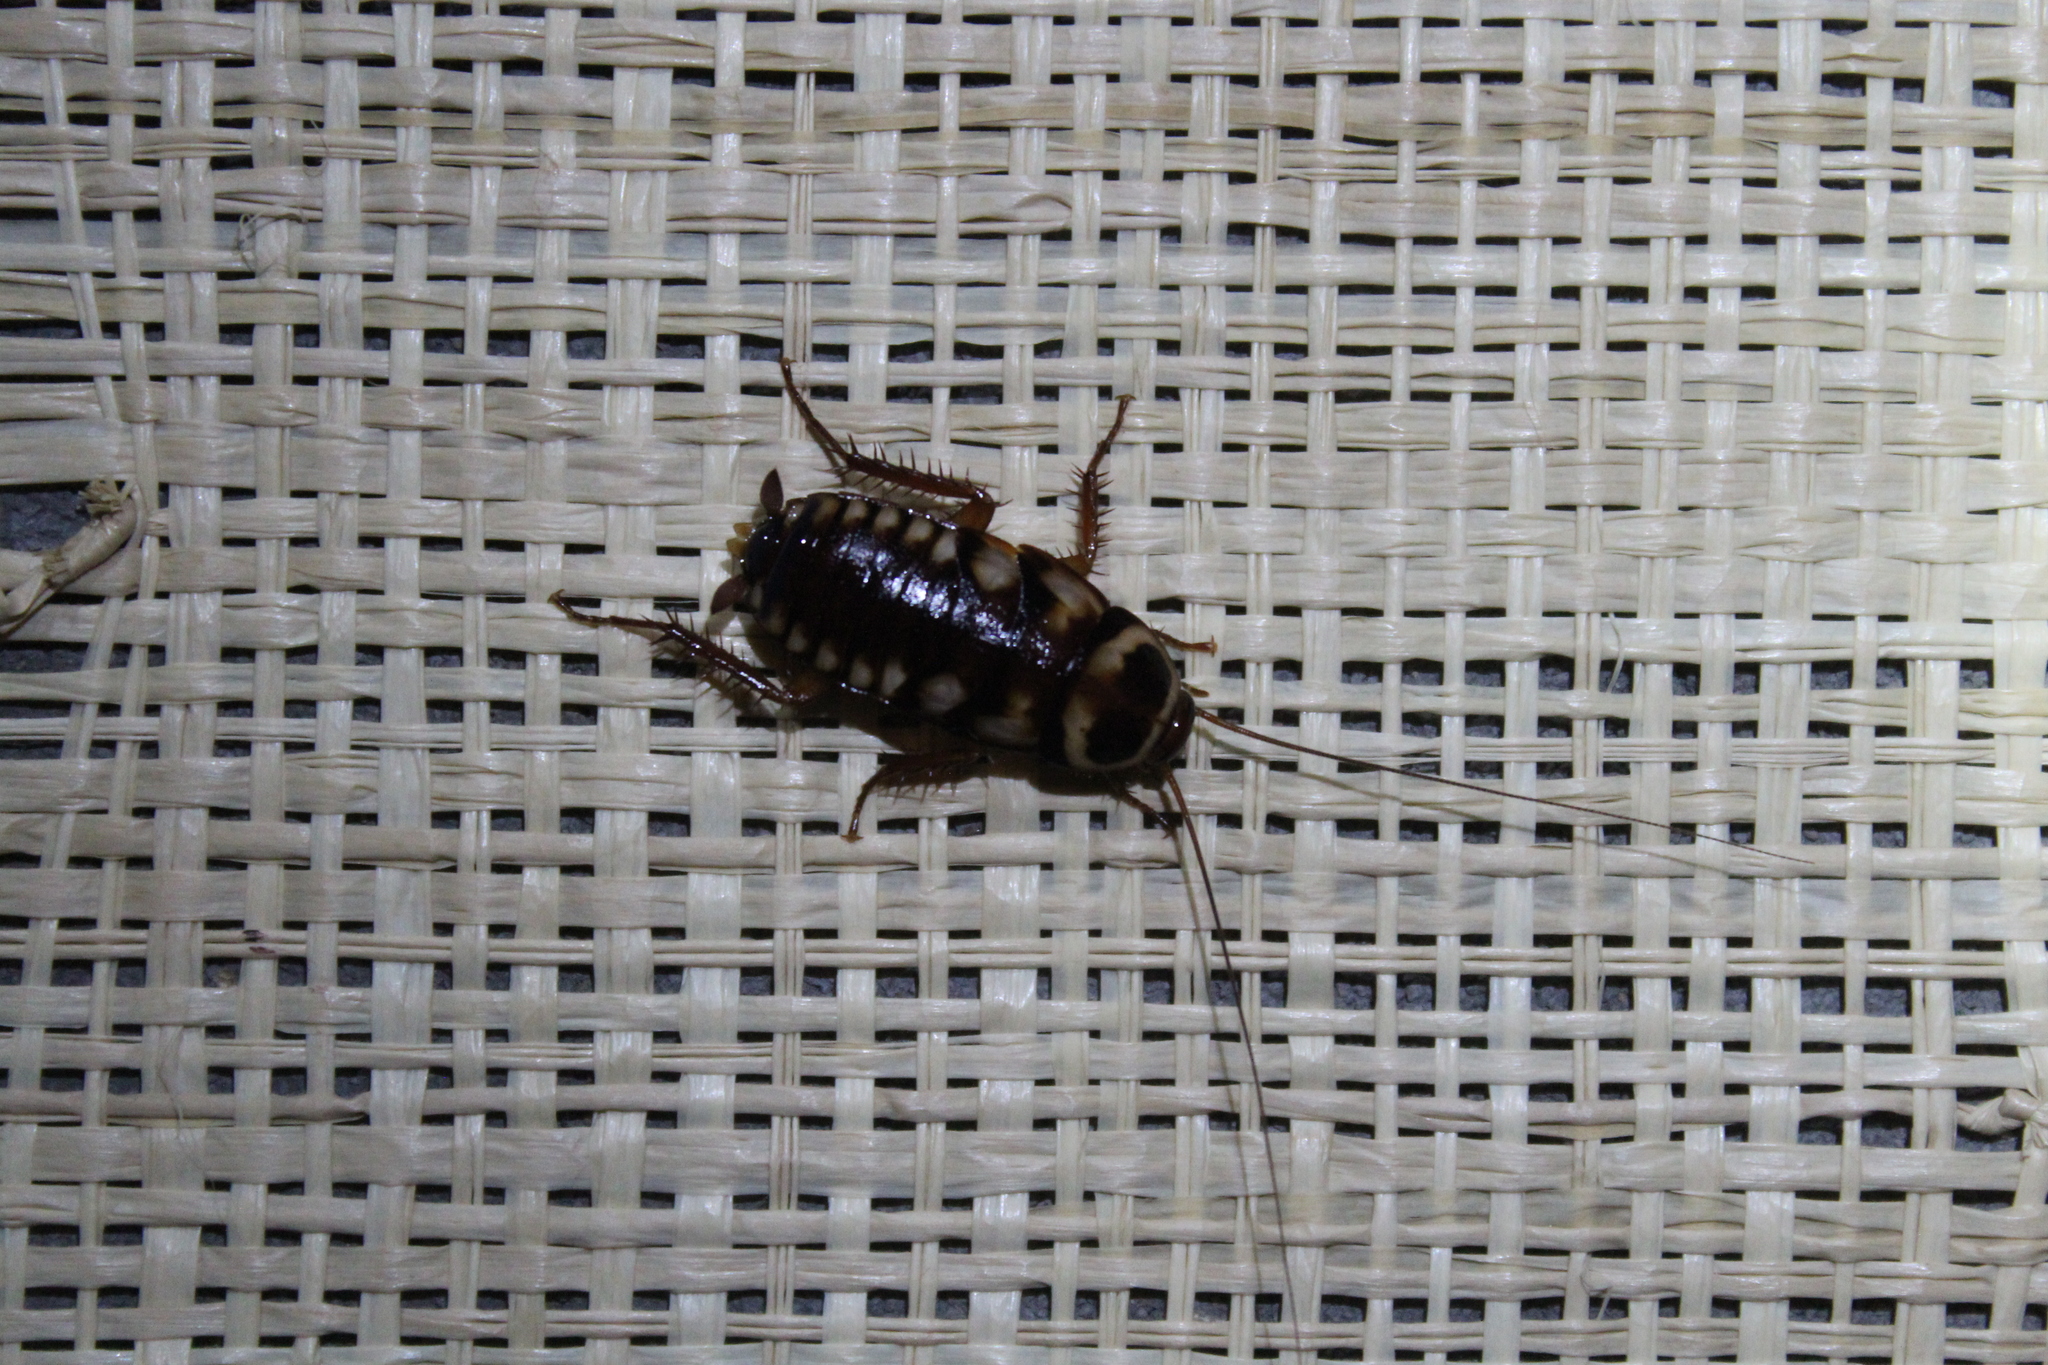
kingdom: Animalia
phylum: Arthropoda
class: Insecta
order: Blattodea
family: Blattidae
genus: Periplaneta
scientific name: Periplaneta australasiae
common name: Australian cockroach
